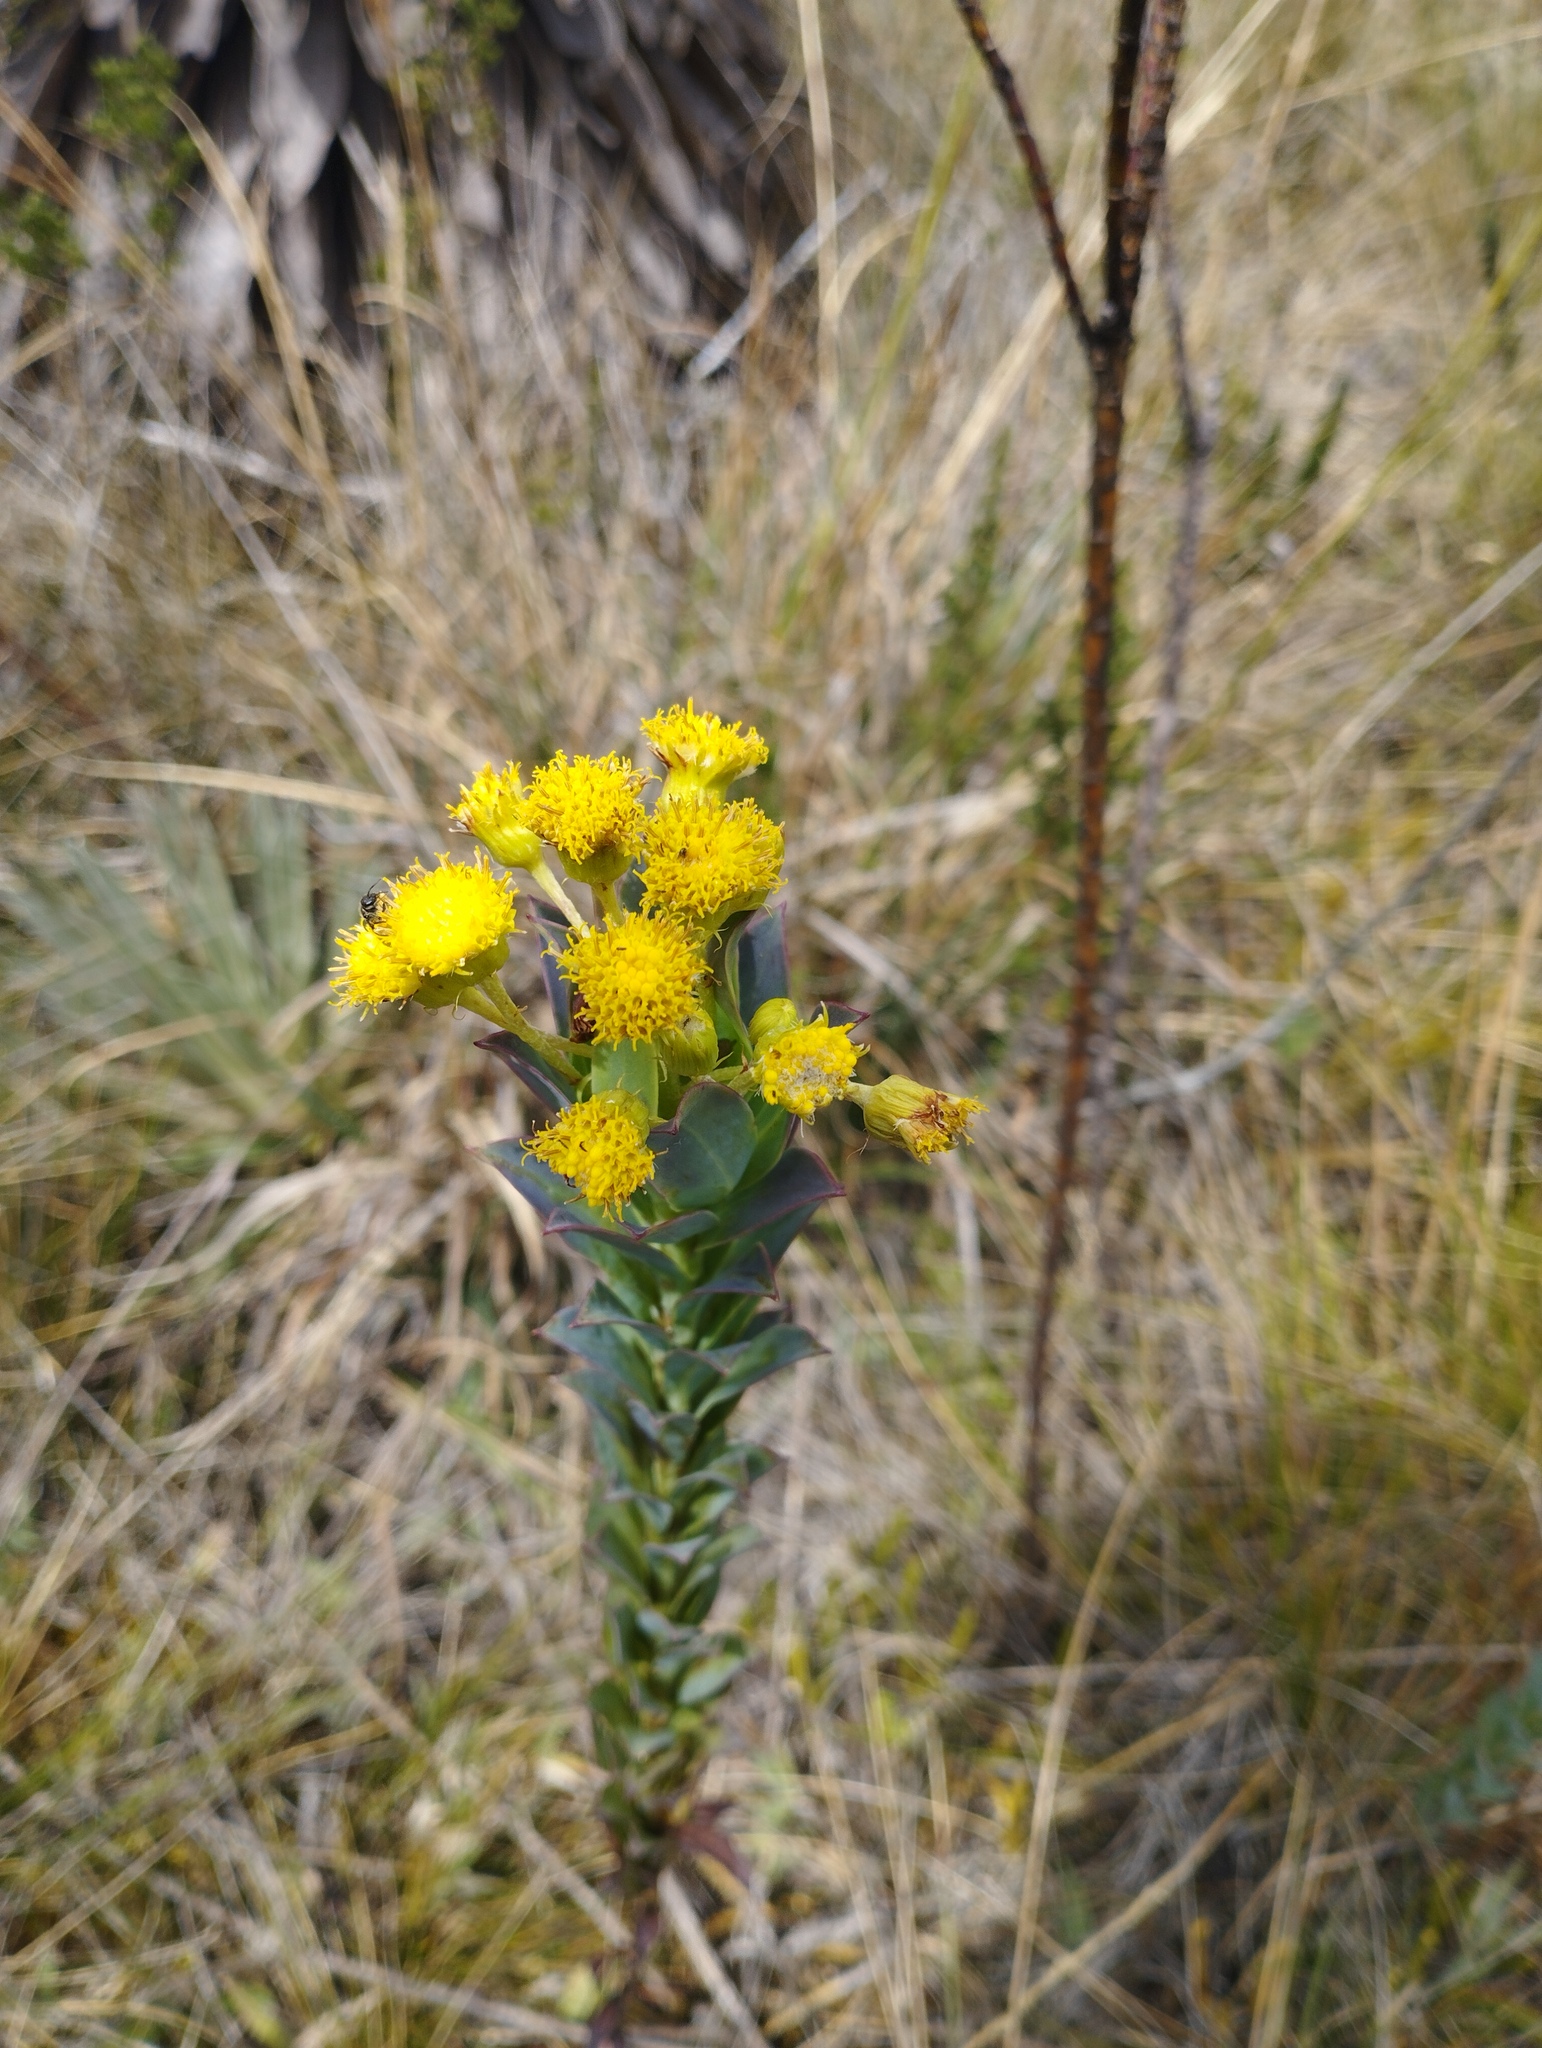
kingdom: Plantae
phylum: Tracheophyta
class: Magnoliopsida
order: Asterales
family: Asteraceae
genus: Monticalia
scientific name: Monticalia vaccinioides
